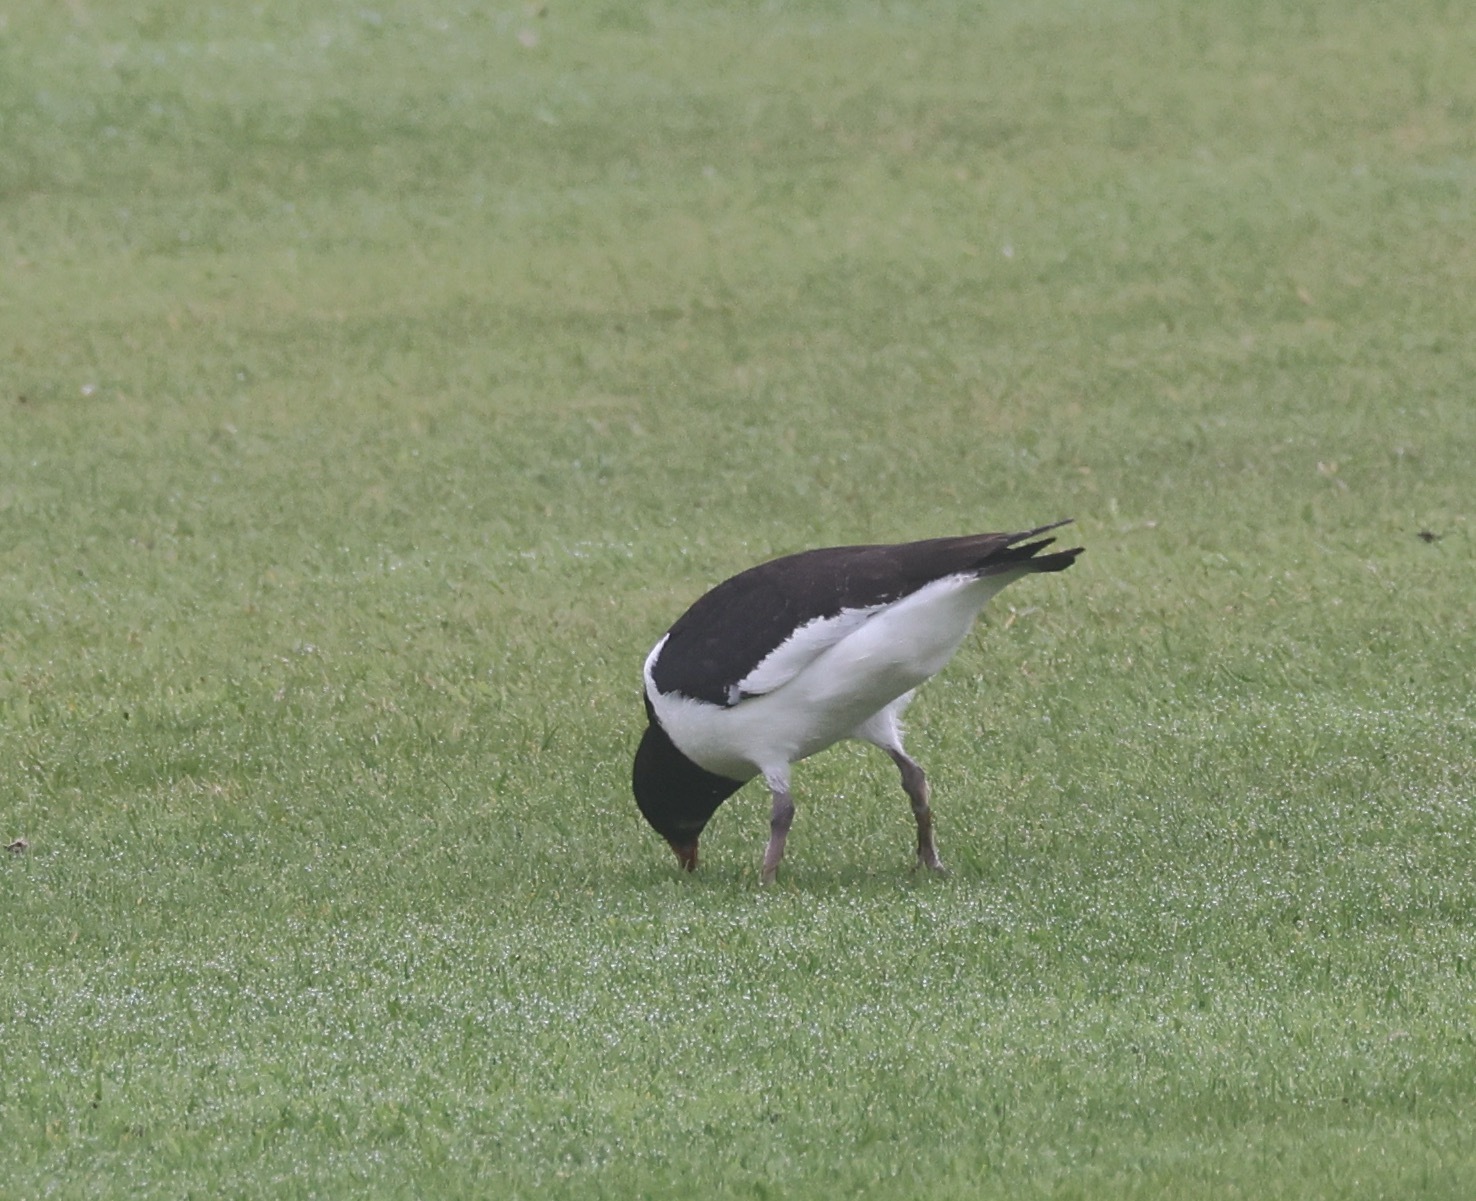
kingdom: Animalia
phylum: Chordata
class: Aves
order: Charadriiformes
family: Haematopodidae
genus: Haematopus
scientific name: Haematopus ostralegus
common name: Eurasian oystercatcher
